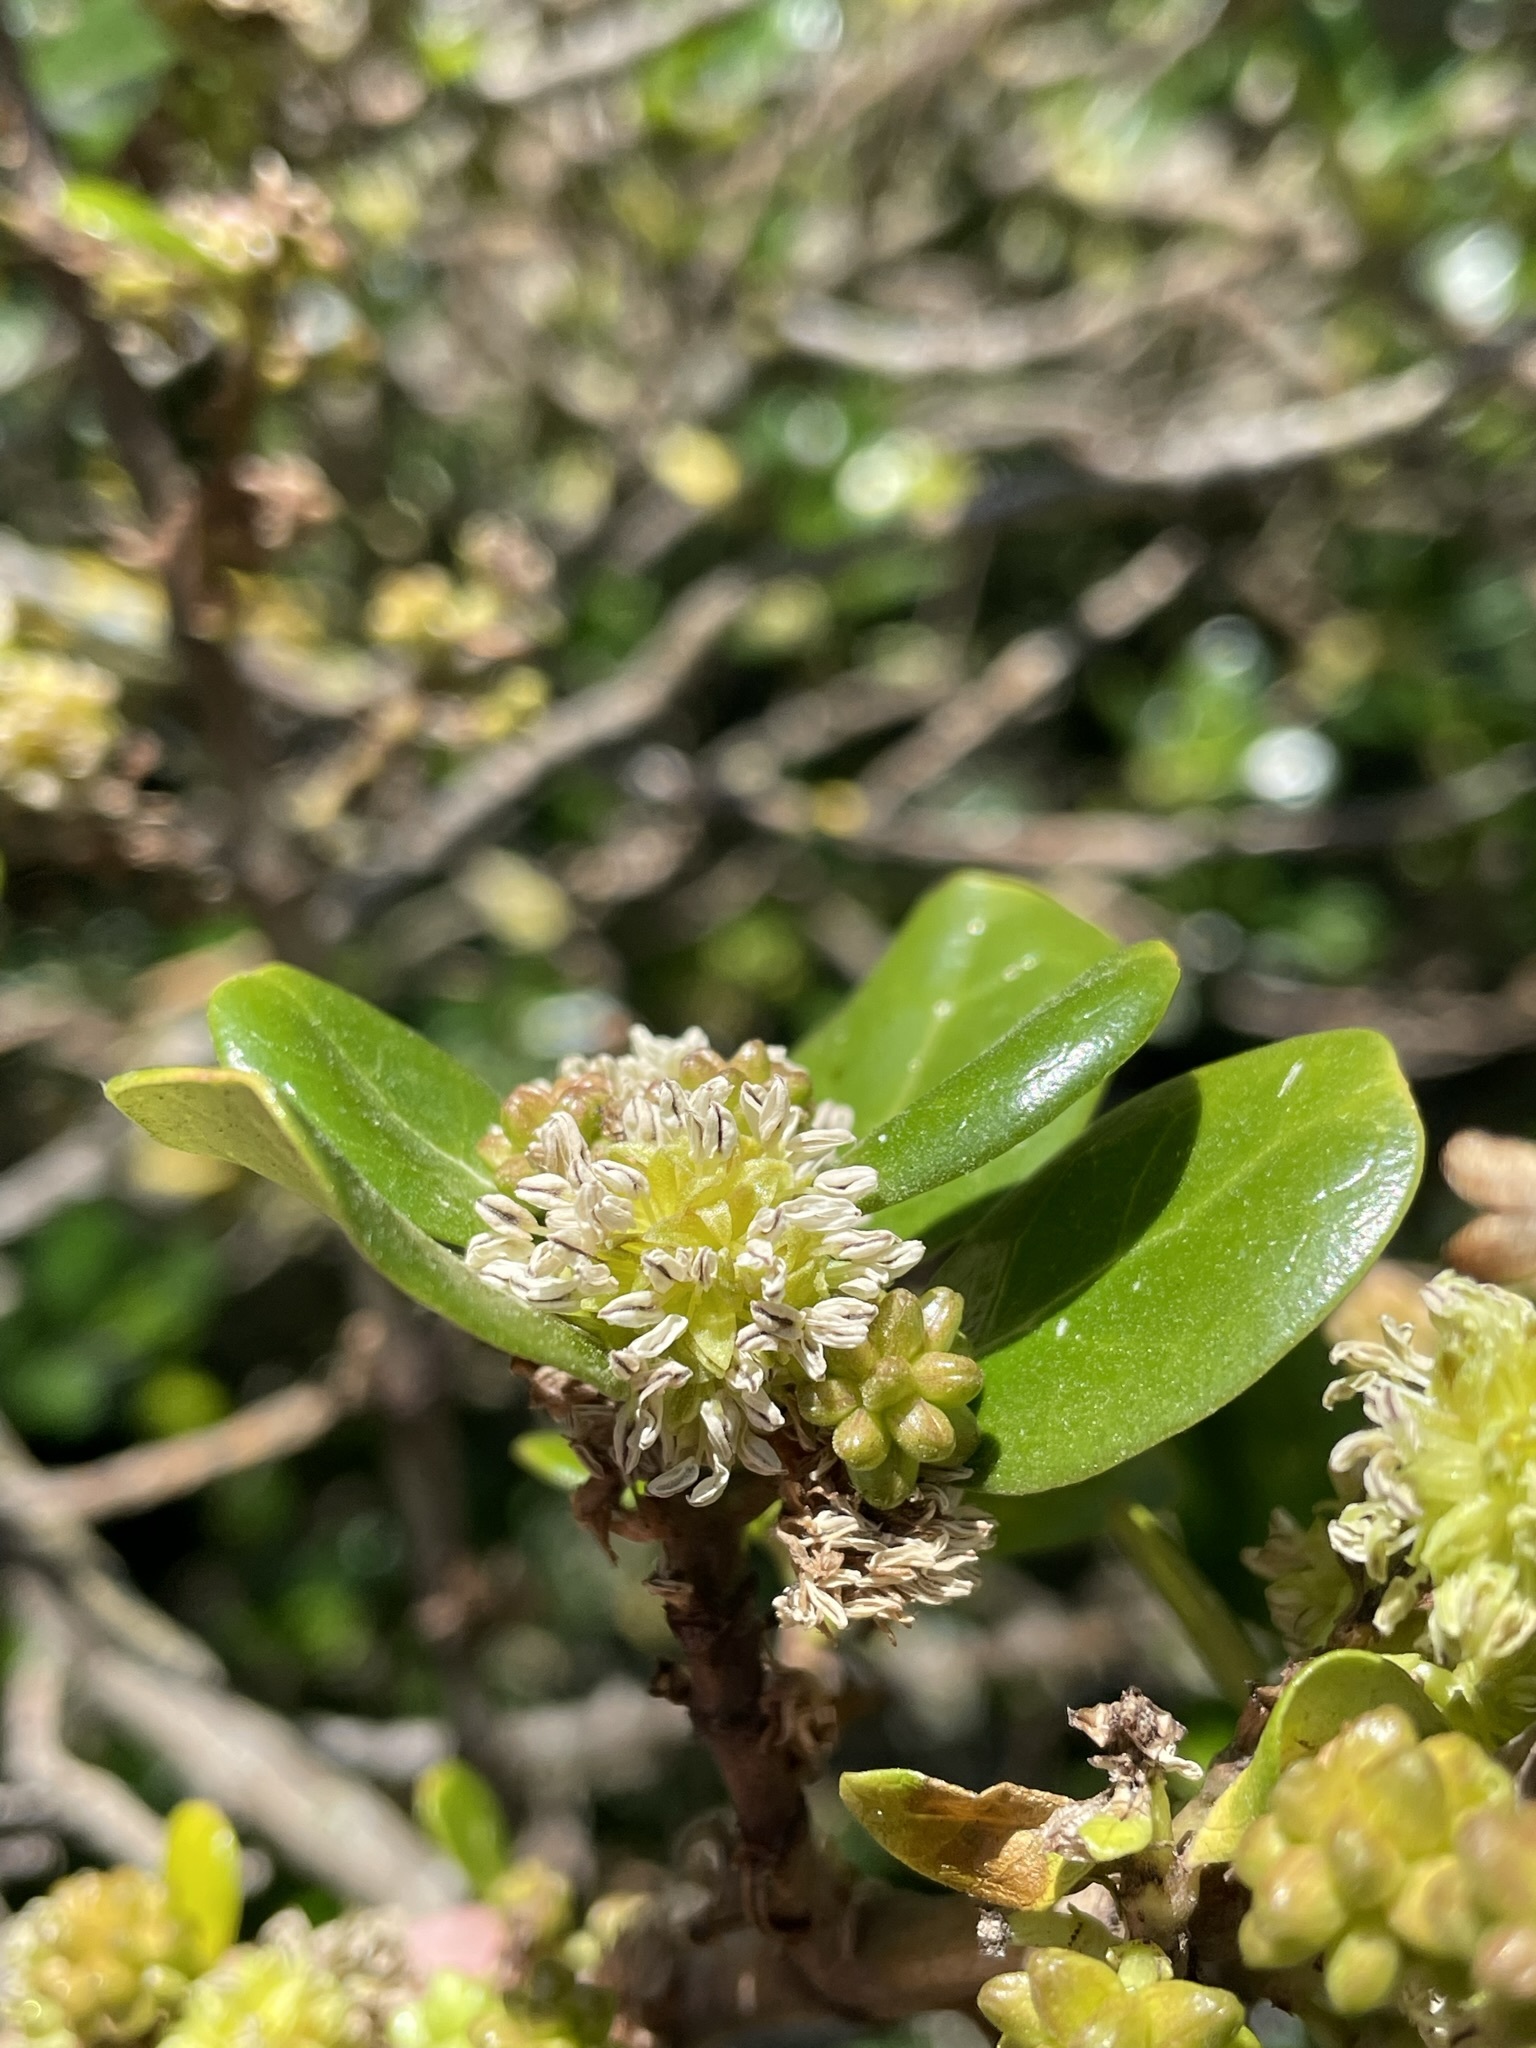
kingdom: Plantae
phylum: Tracheophyta
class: Magnoliopsida
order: Gentianales
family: Rubiaceae
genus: Coprosma
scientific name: Coprosma repens
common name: Tree bedstraw
